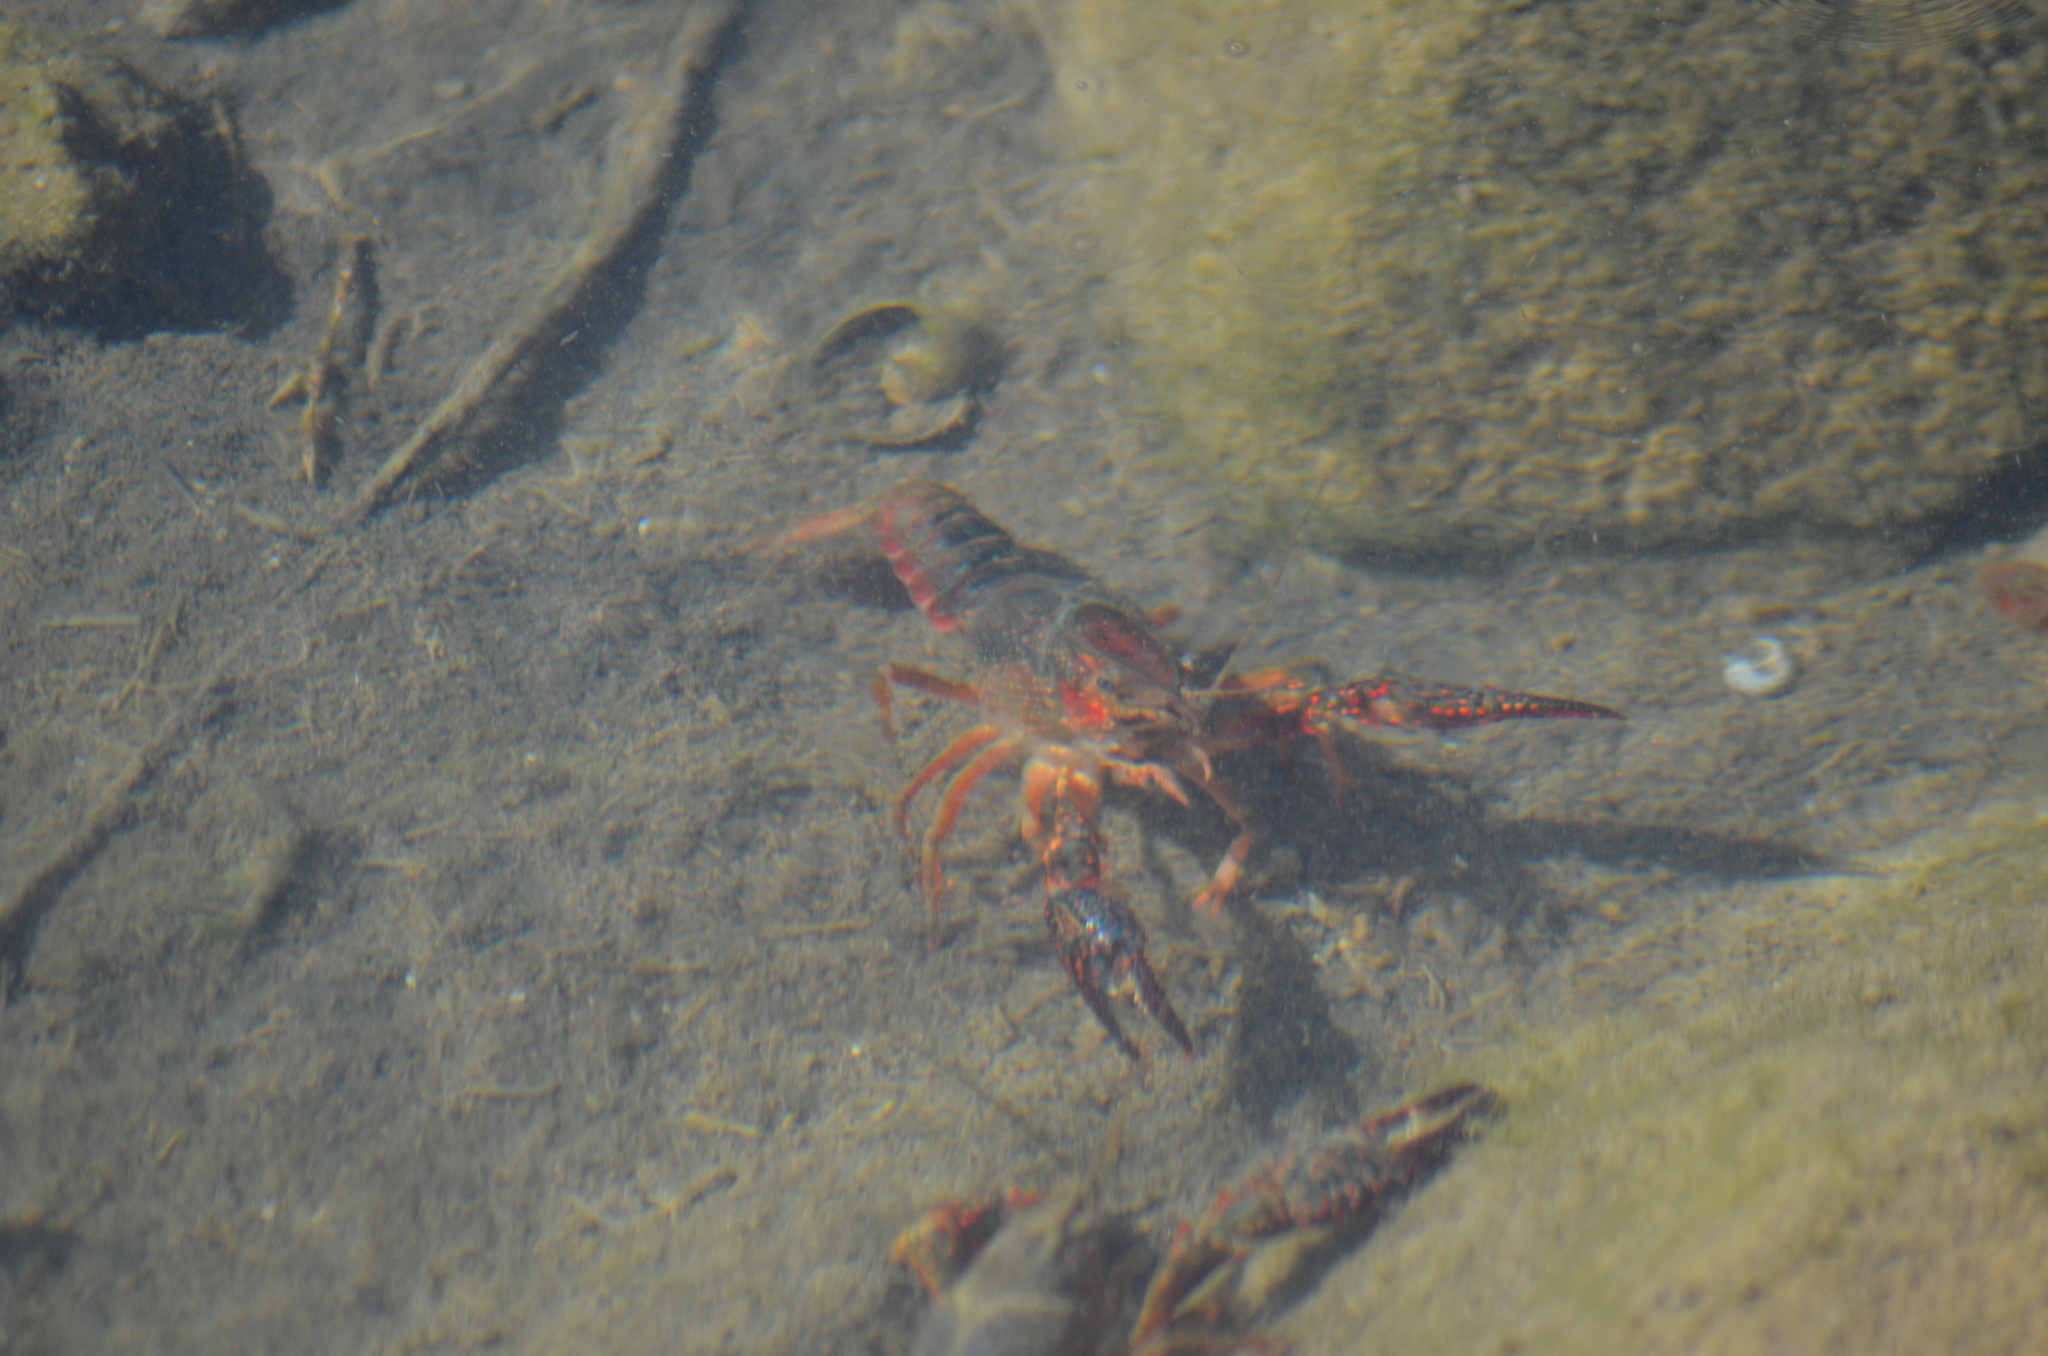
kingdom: Animalia
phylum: Arthropoda
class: Malacostraca
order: Decapoda
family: Cambaridae
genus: Procambarus
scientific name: Procambarus clarkii
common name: Red swamp crayfish
